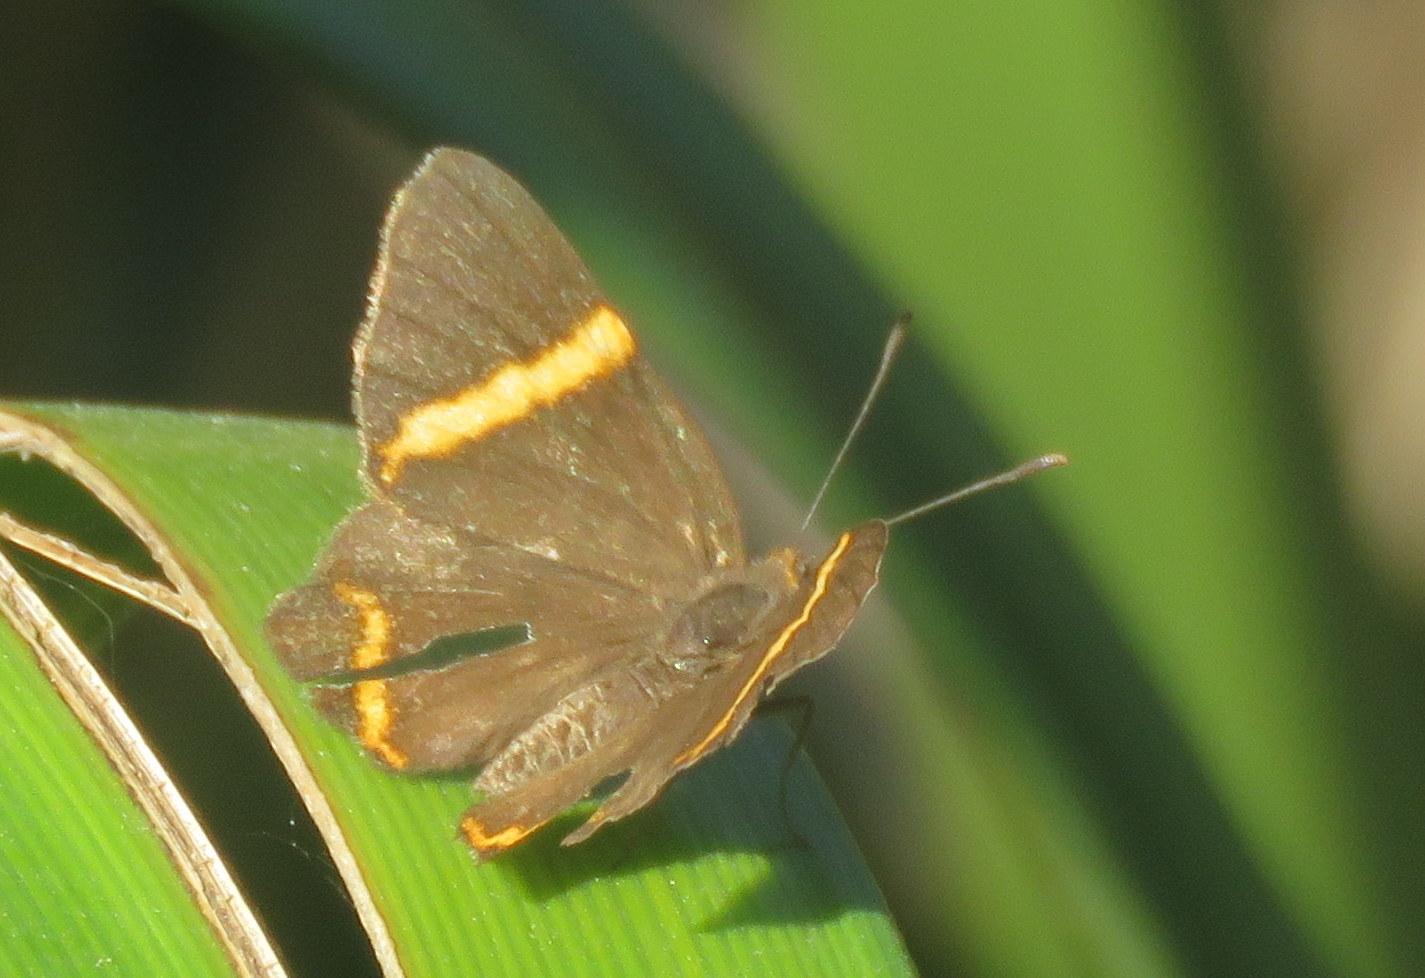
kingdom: Animalia
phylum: Arthropoda
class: Insecta
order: Lepidoptera
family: Riodinidae
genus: Riodina
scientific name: Riodina lysippoides
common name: Little dancer metalmark
